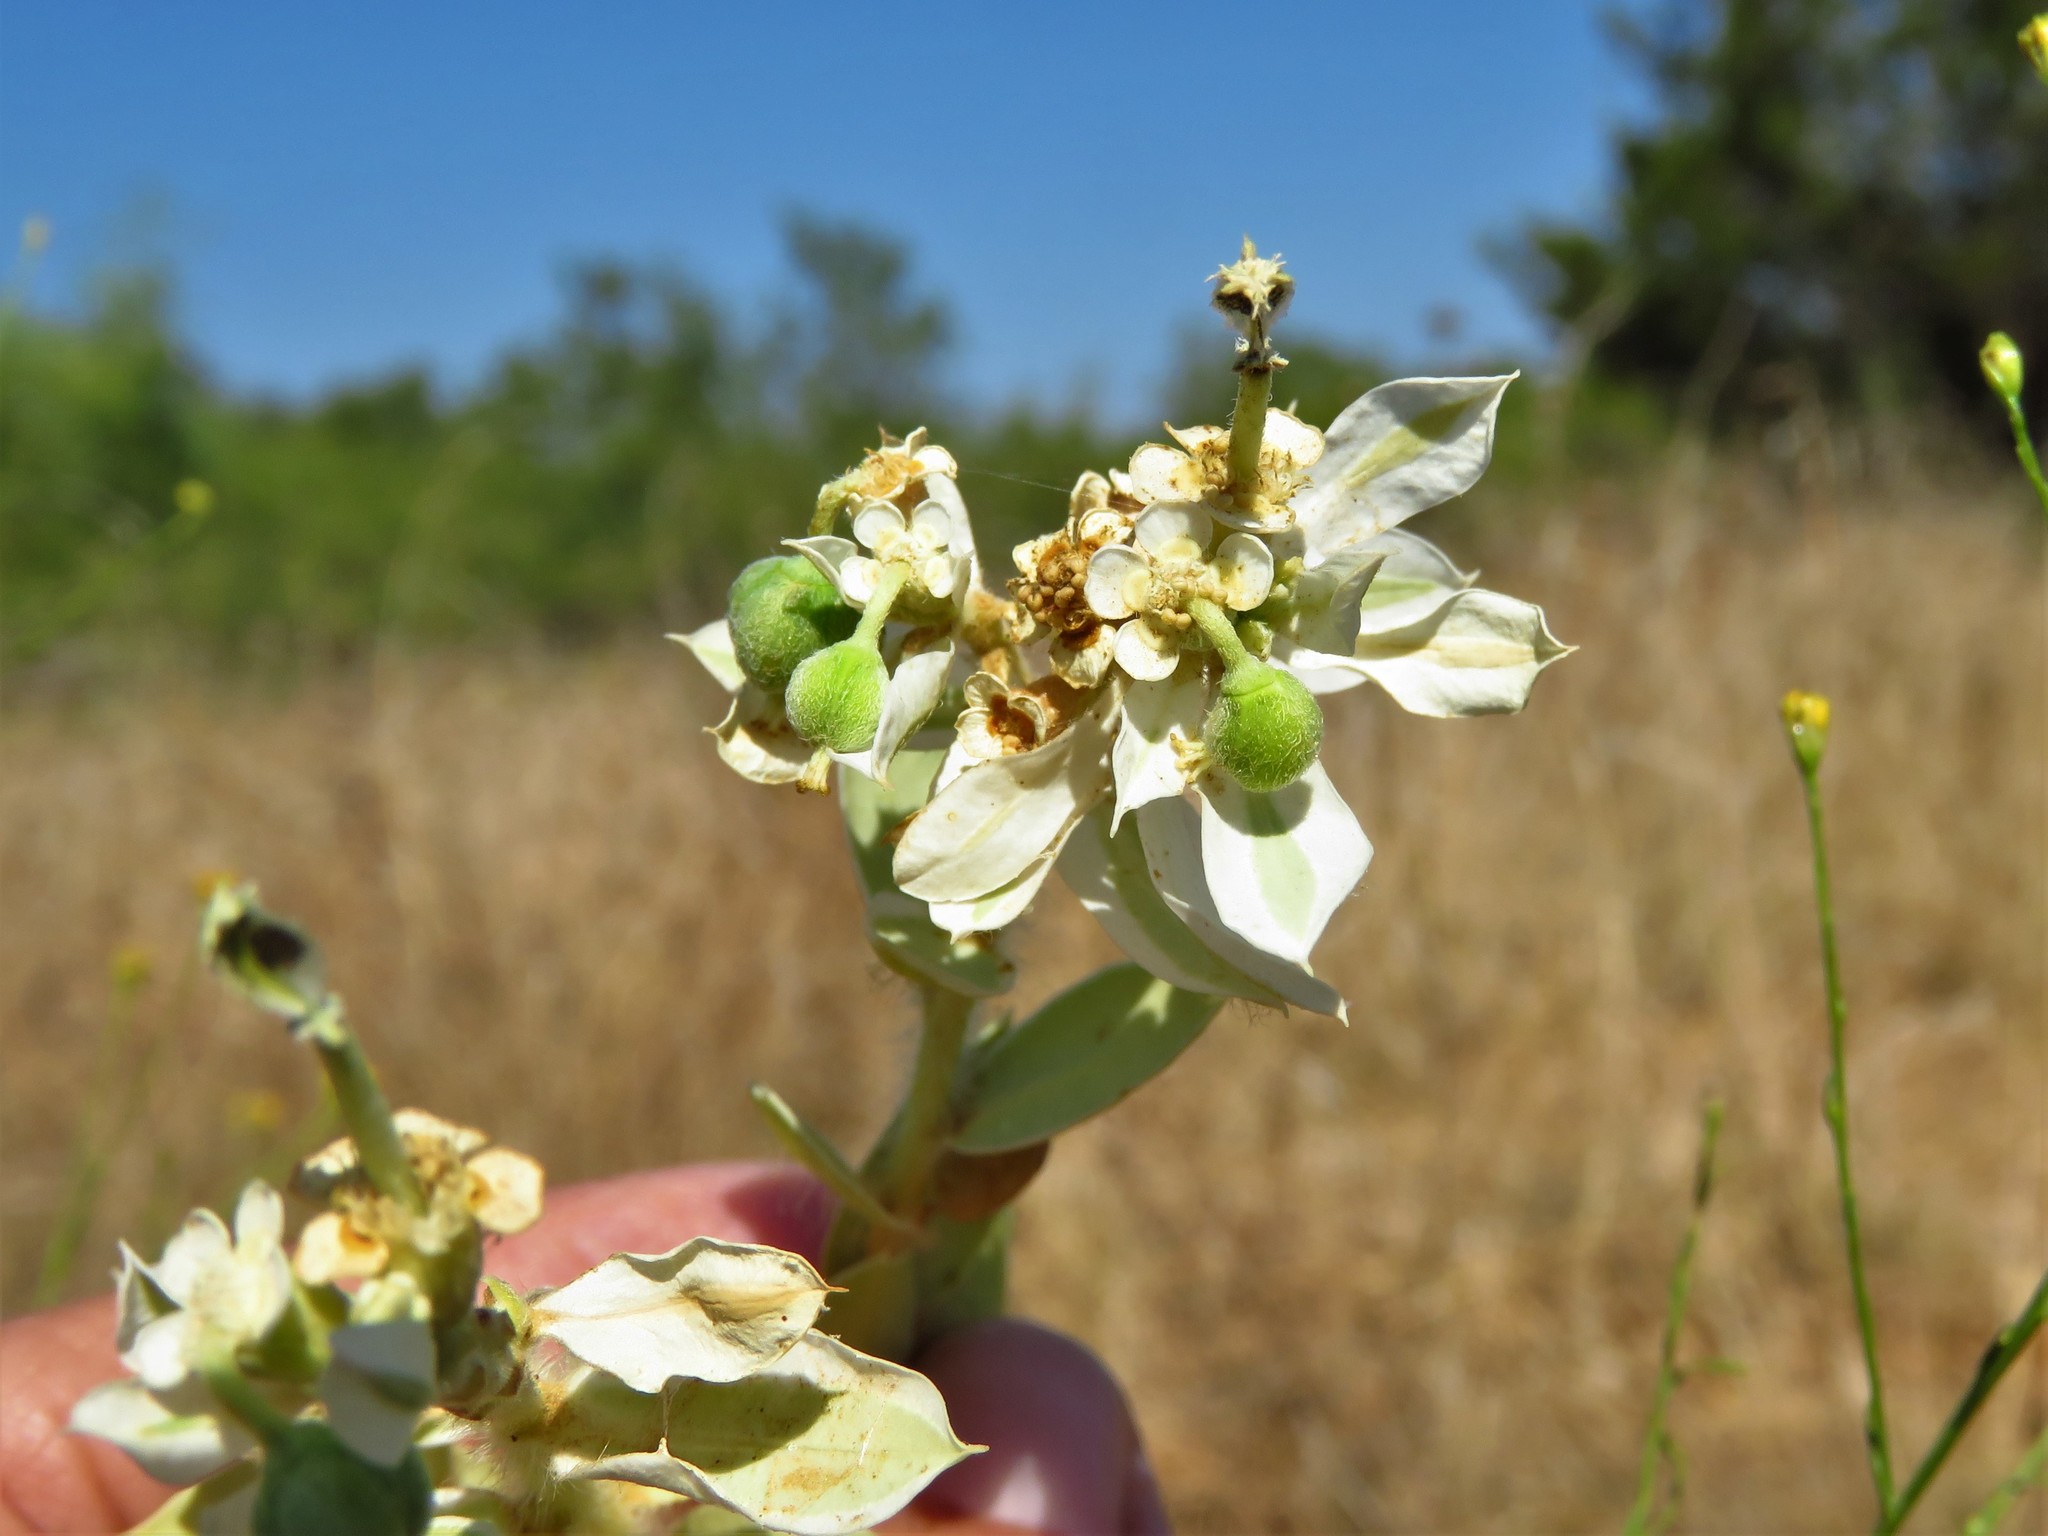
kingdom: Plantae
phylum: Tracheophyta
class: Magnoliopsida
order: Malpighiales
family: Euphorbiaceae
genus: Euphorbia
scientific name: Euphorbia marginata
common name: Ghostweed
